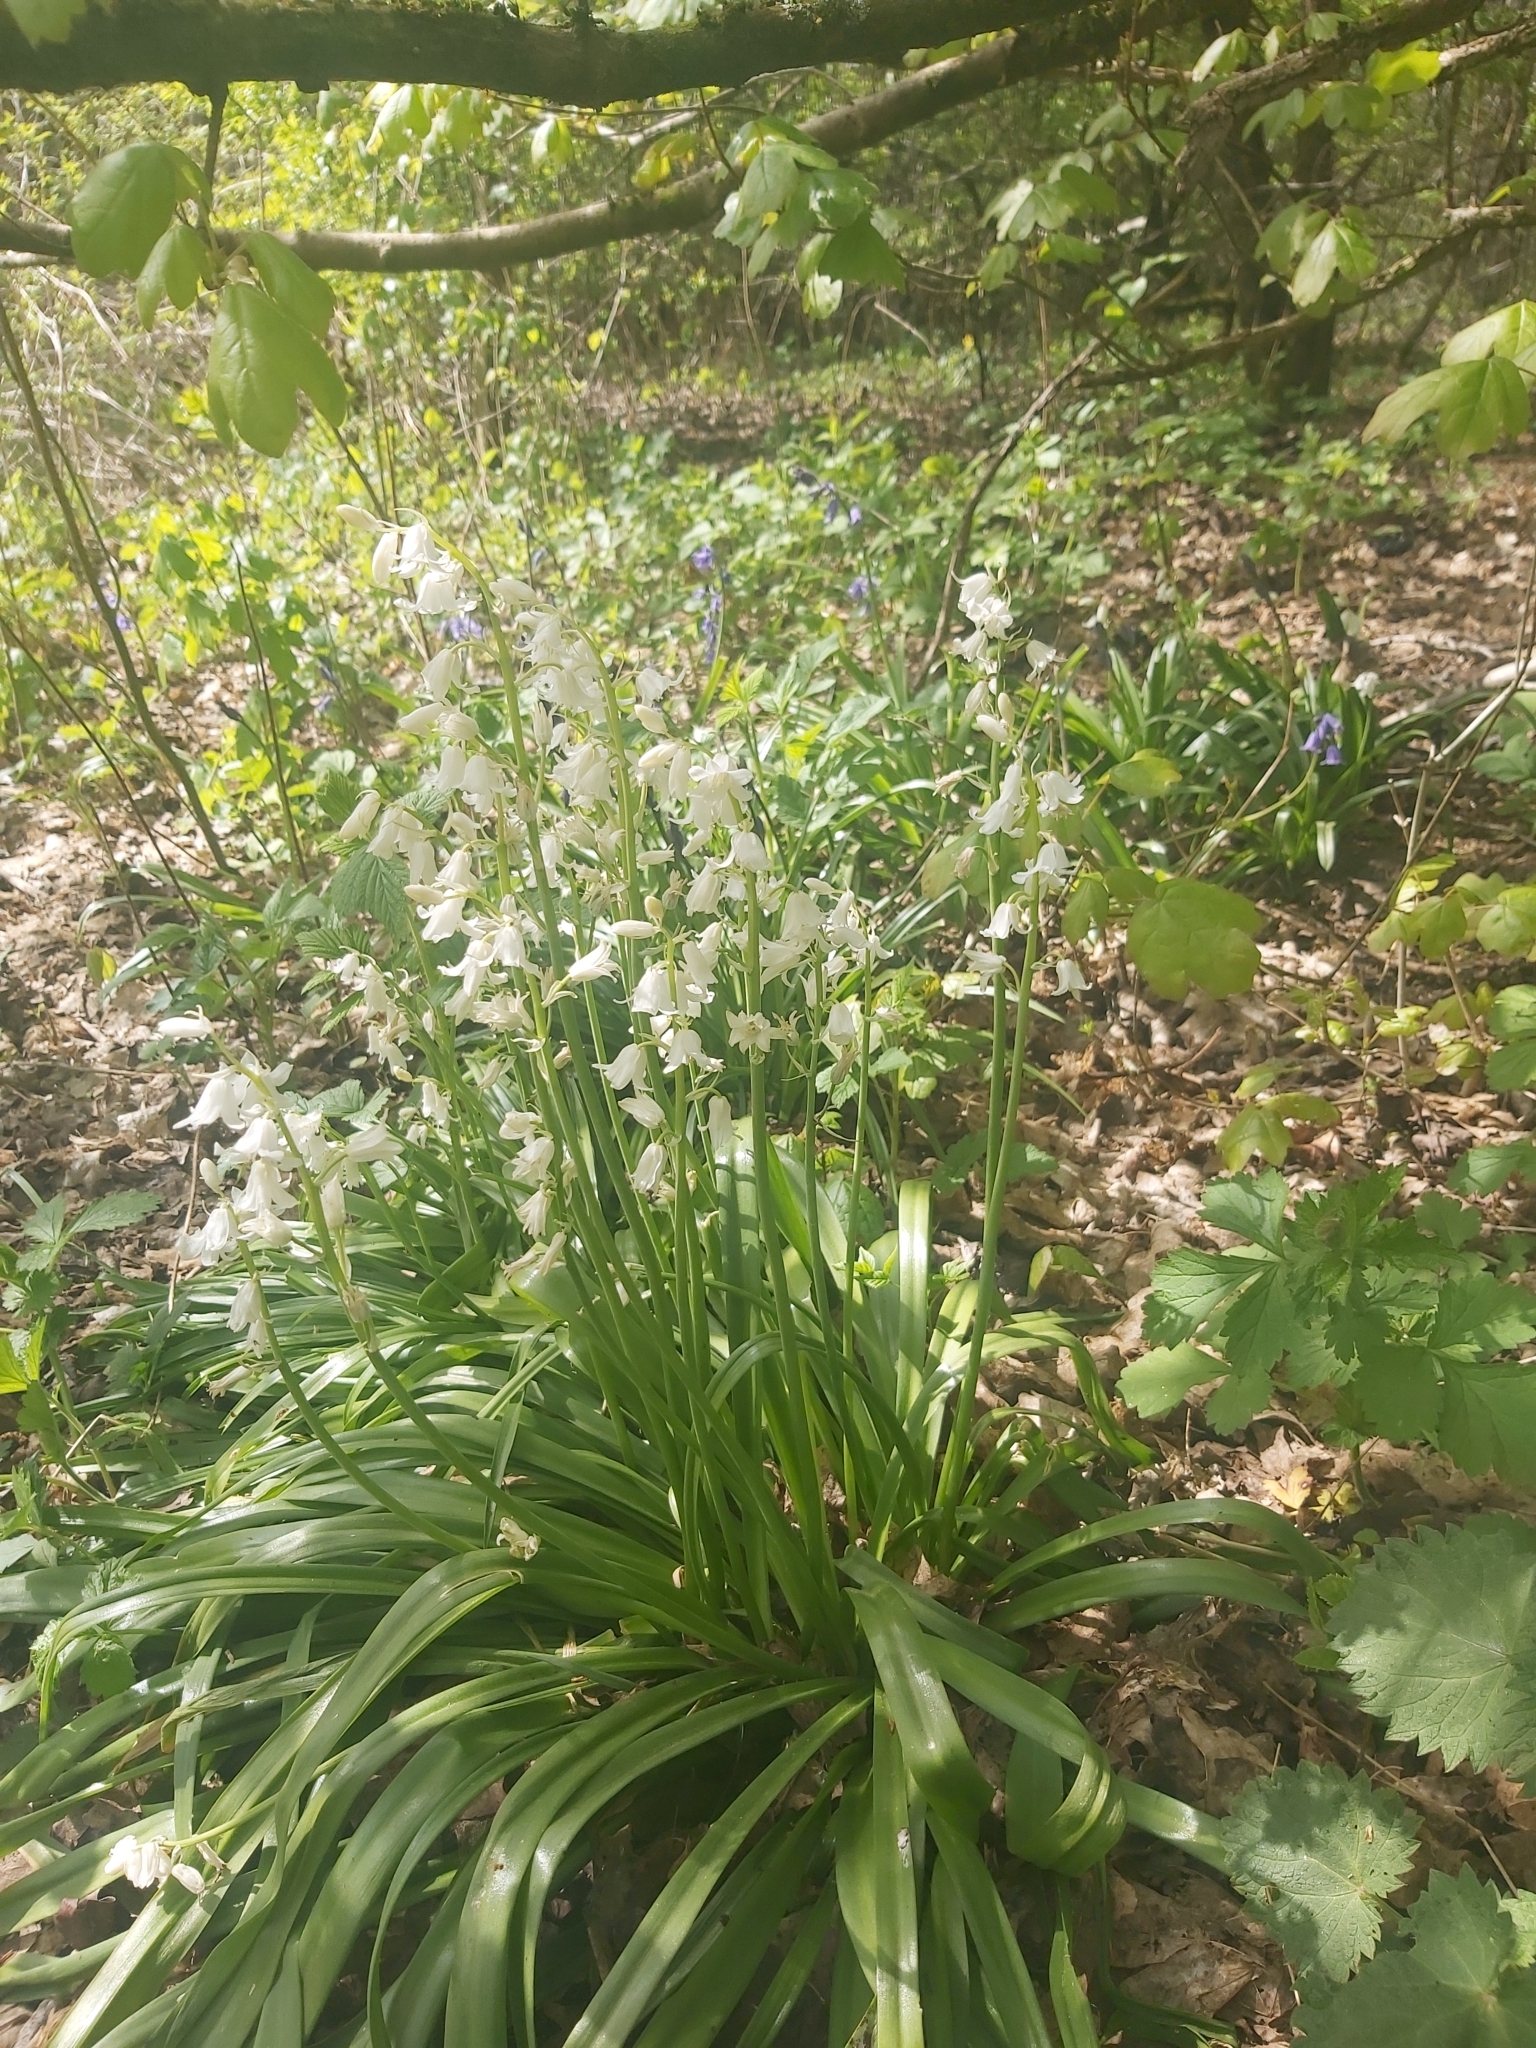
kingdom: Plantae
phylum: Tracheophyta
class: Liliopsida
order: Asparagales
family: Asparagaceae
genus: Hyacinthoides
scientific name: Hyacinthoides massartiana
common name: Hyacinthoides
